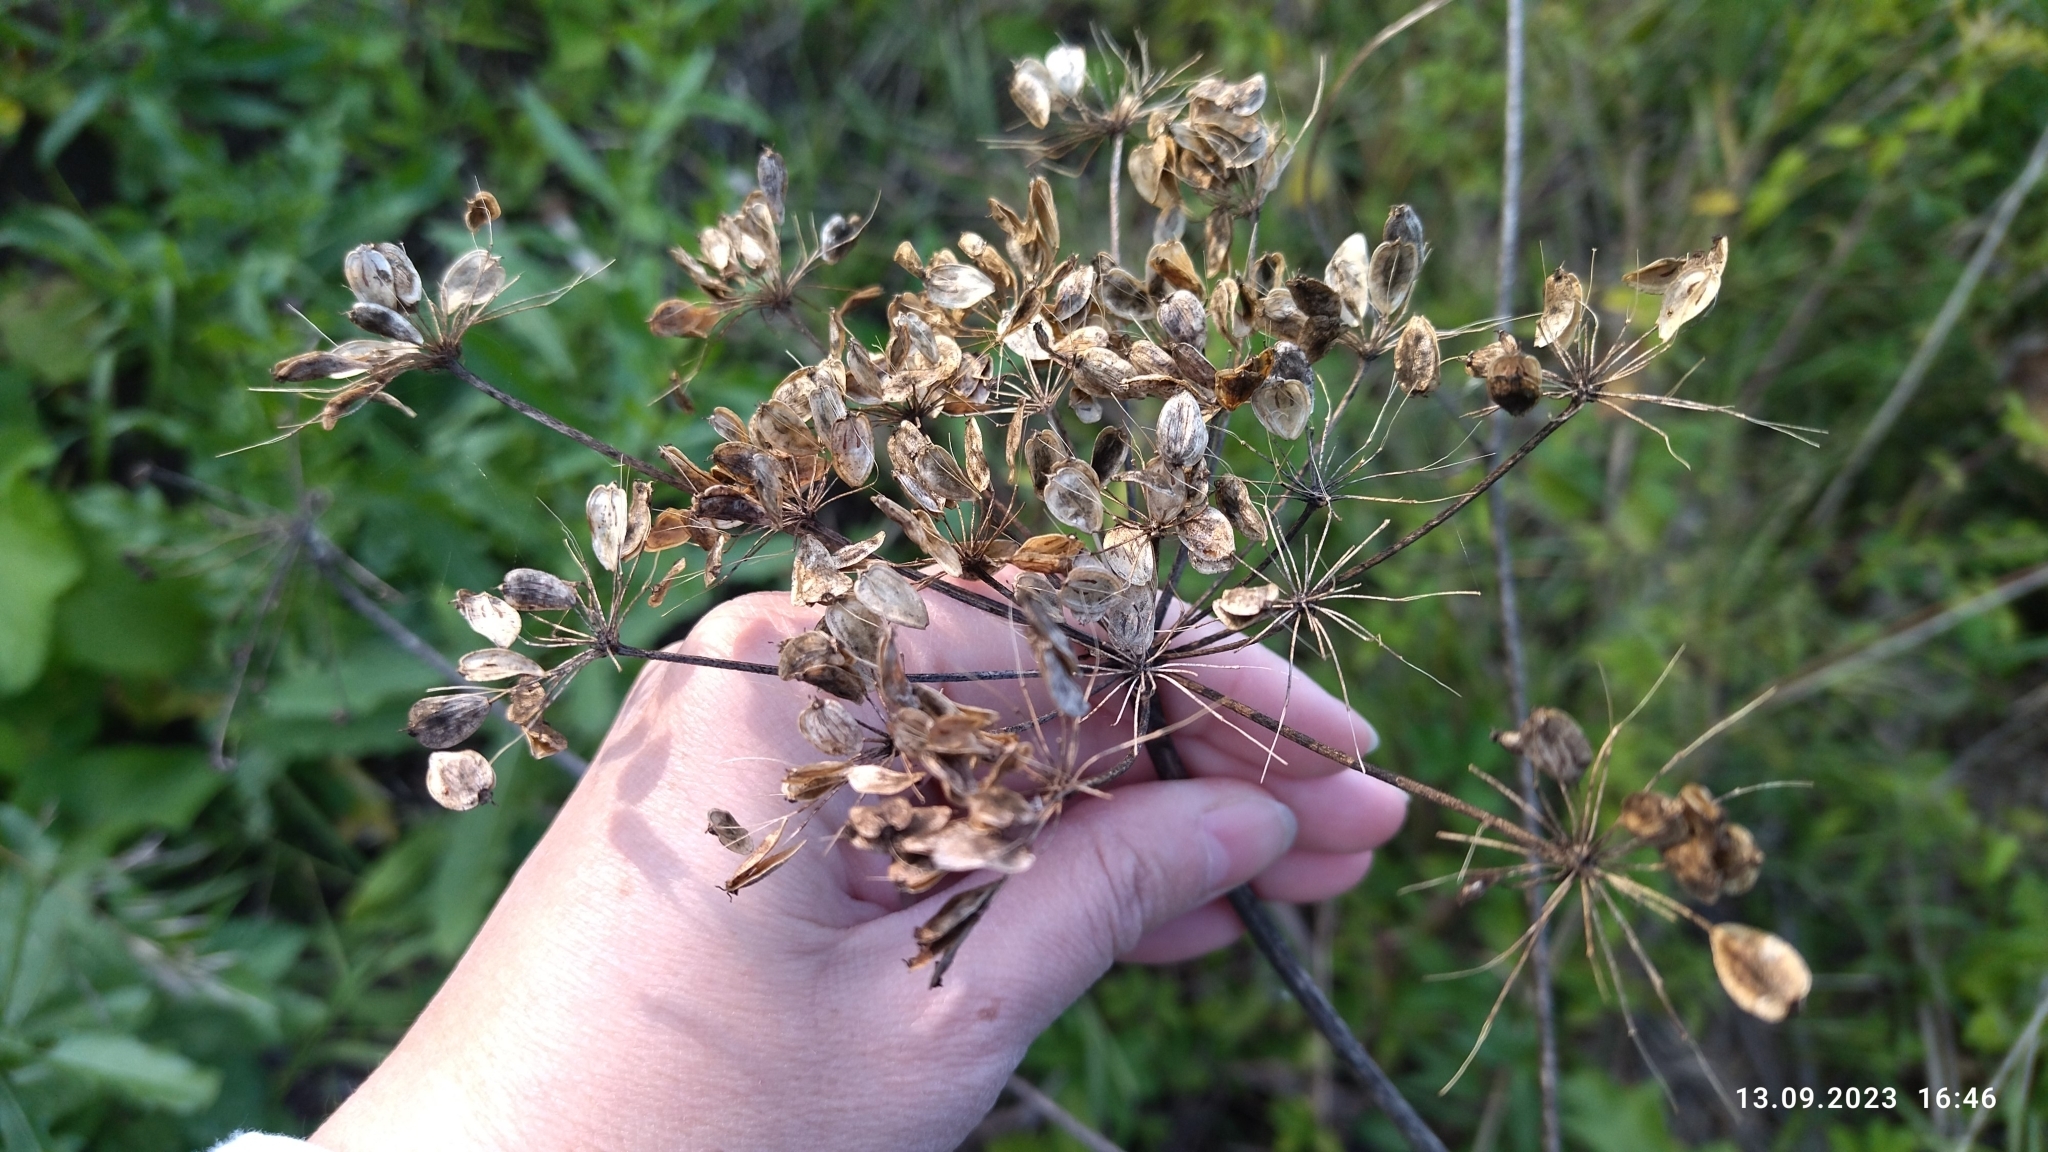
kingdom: Plantae
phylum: Tracheophyta
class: Magnoliopsida
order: Apiales
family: Apiaceae
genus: Heracleum
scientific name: Heracleum sphondylium
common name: Hogweed
